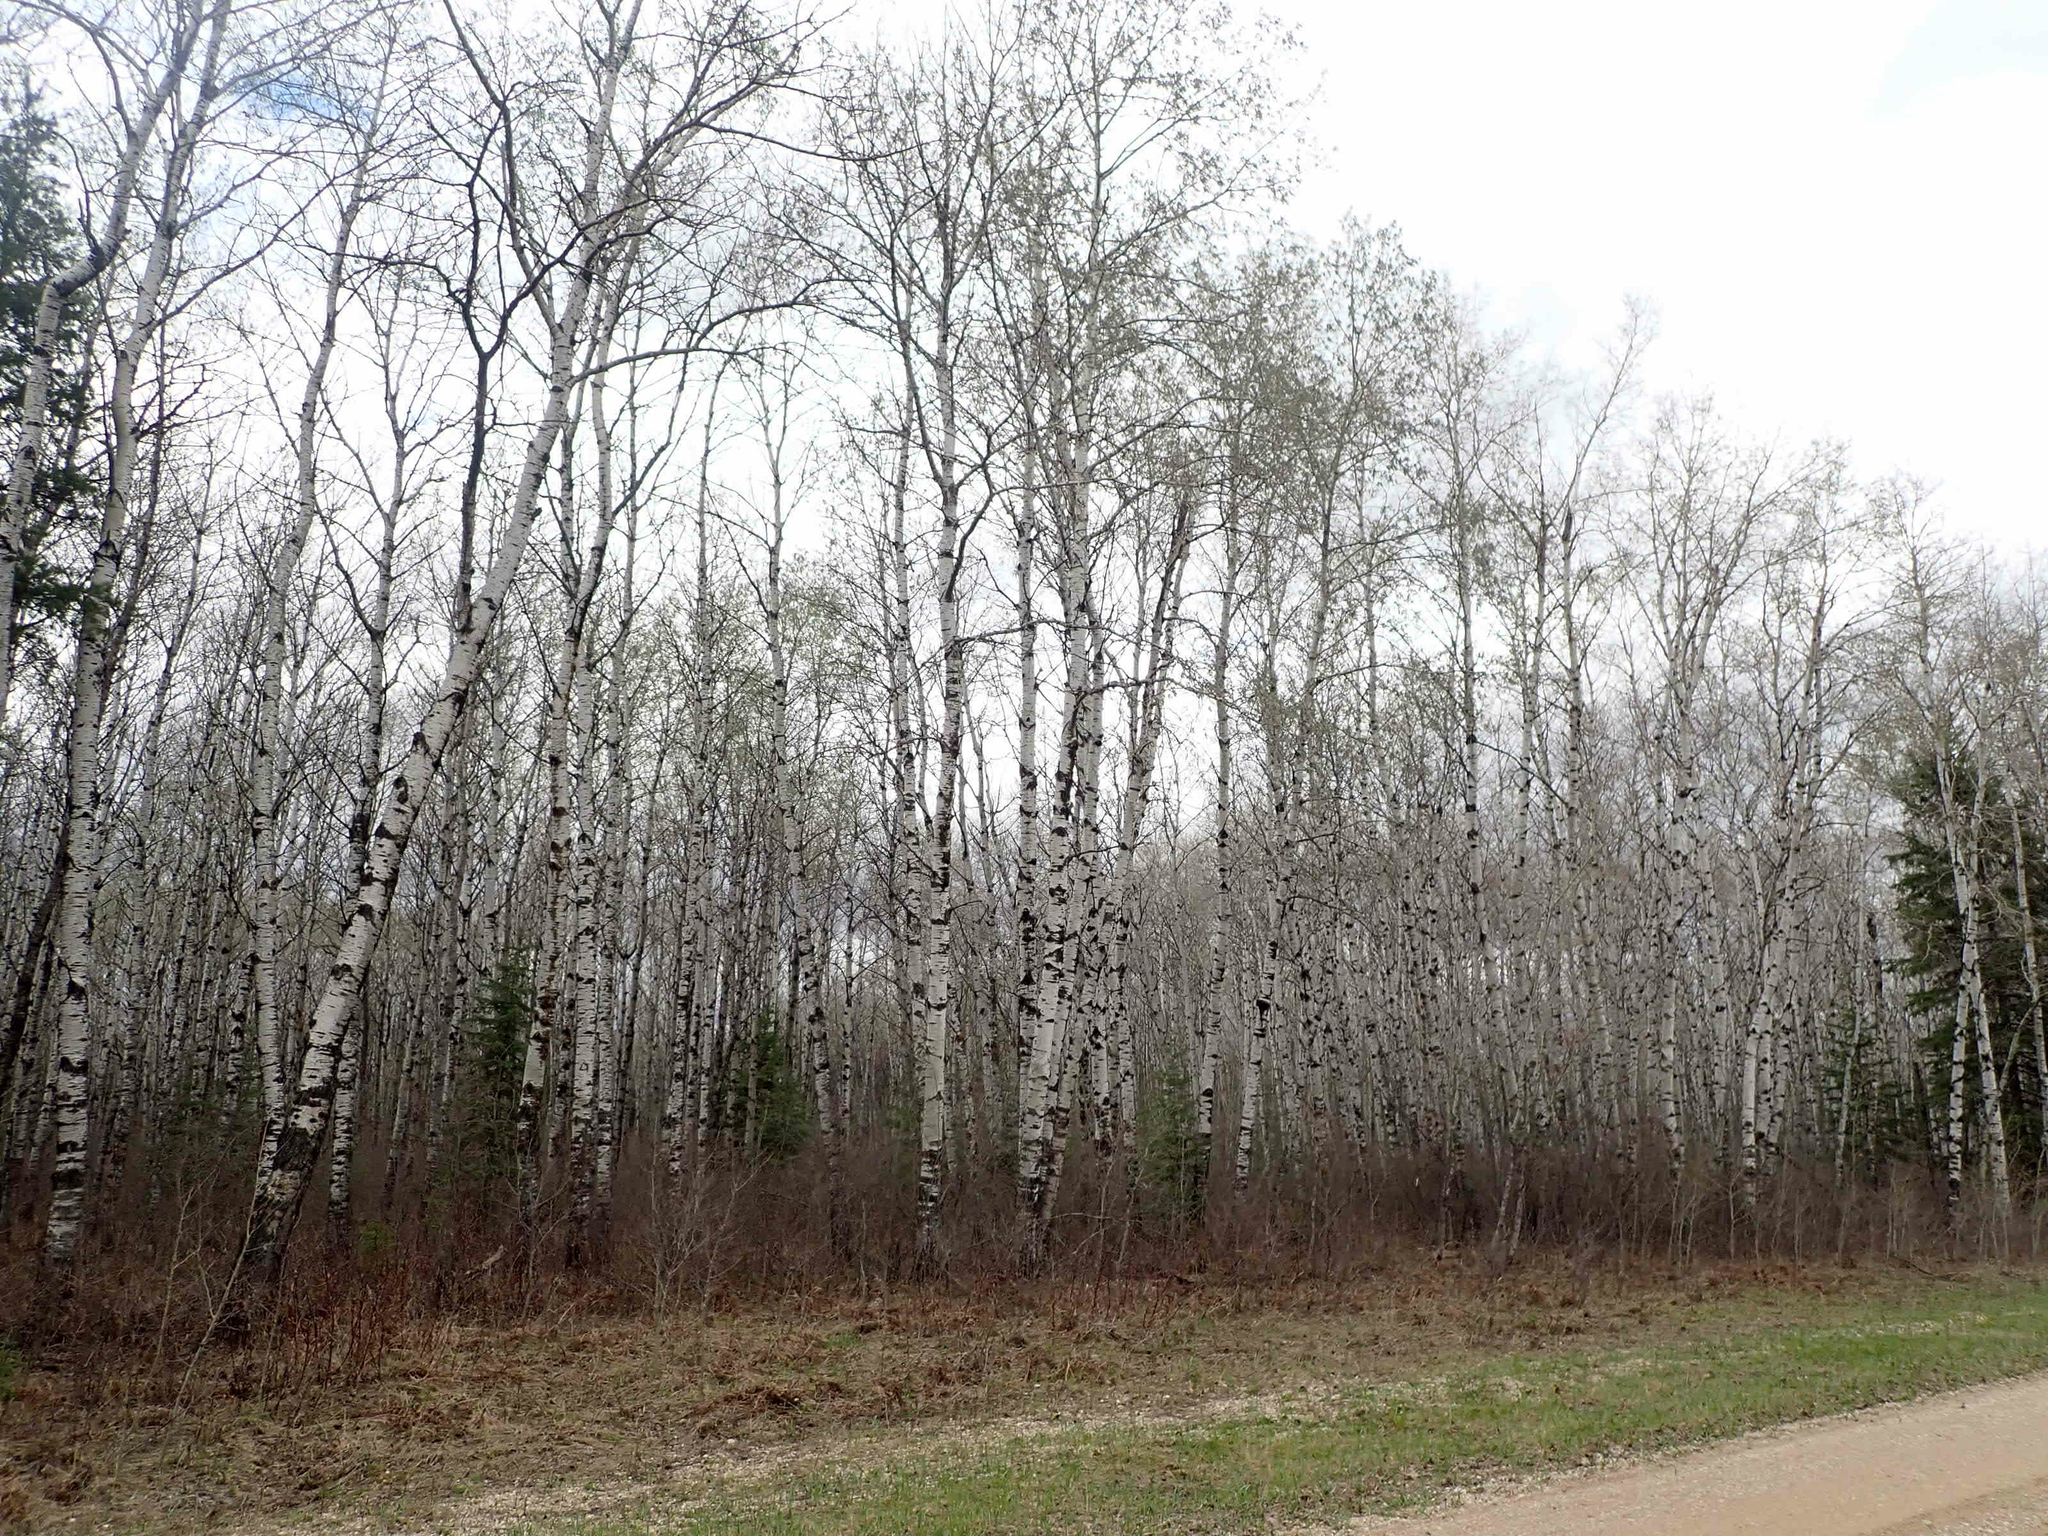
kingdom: Plantae
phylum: Tracheophyta
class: Magnoliopsida
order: Malpighiales
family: Salicaceae
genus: Populus
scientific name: Populus tremuloides
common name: Quaking aspen
